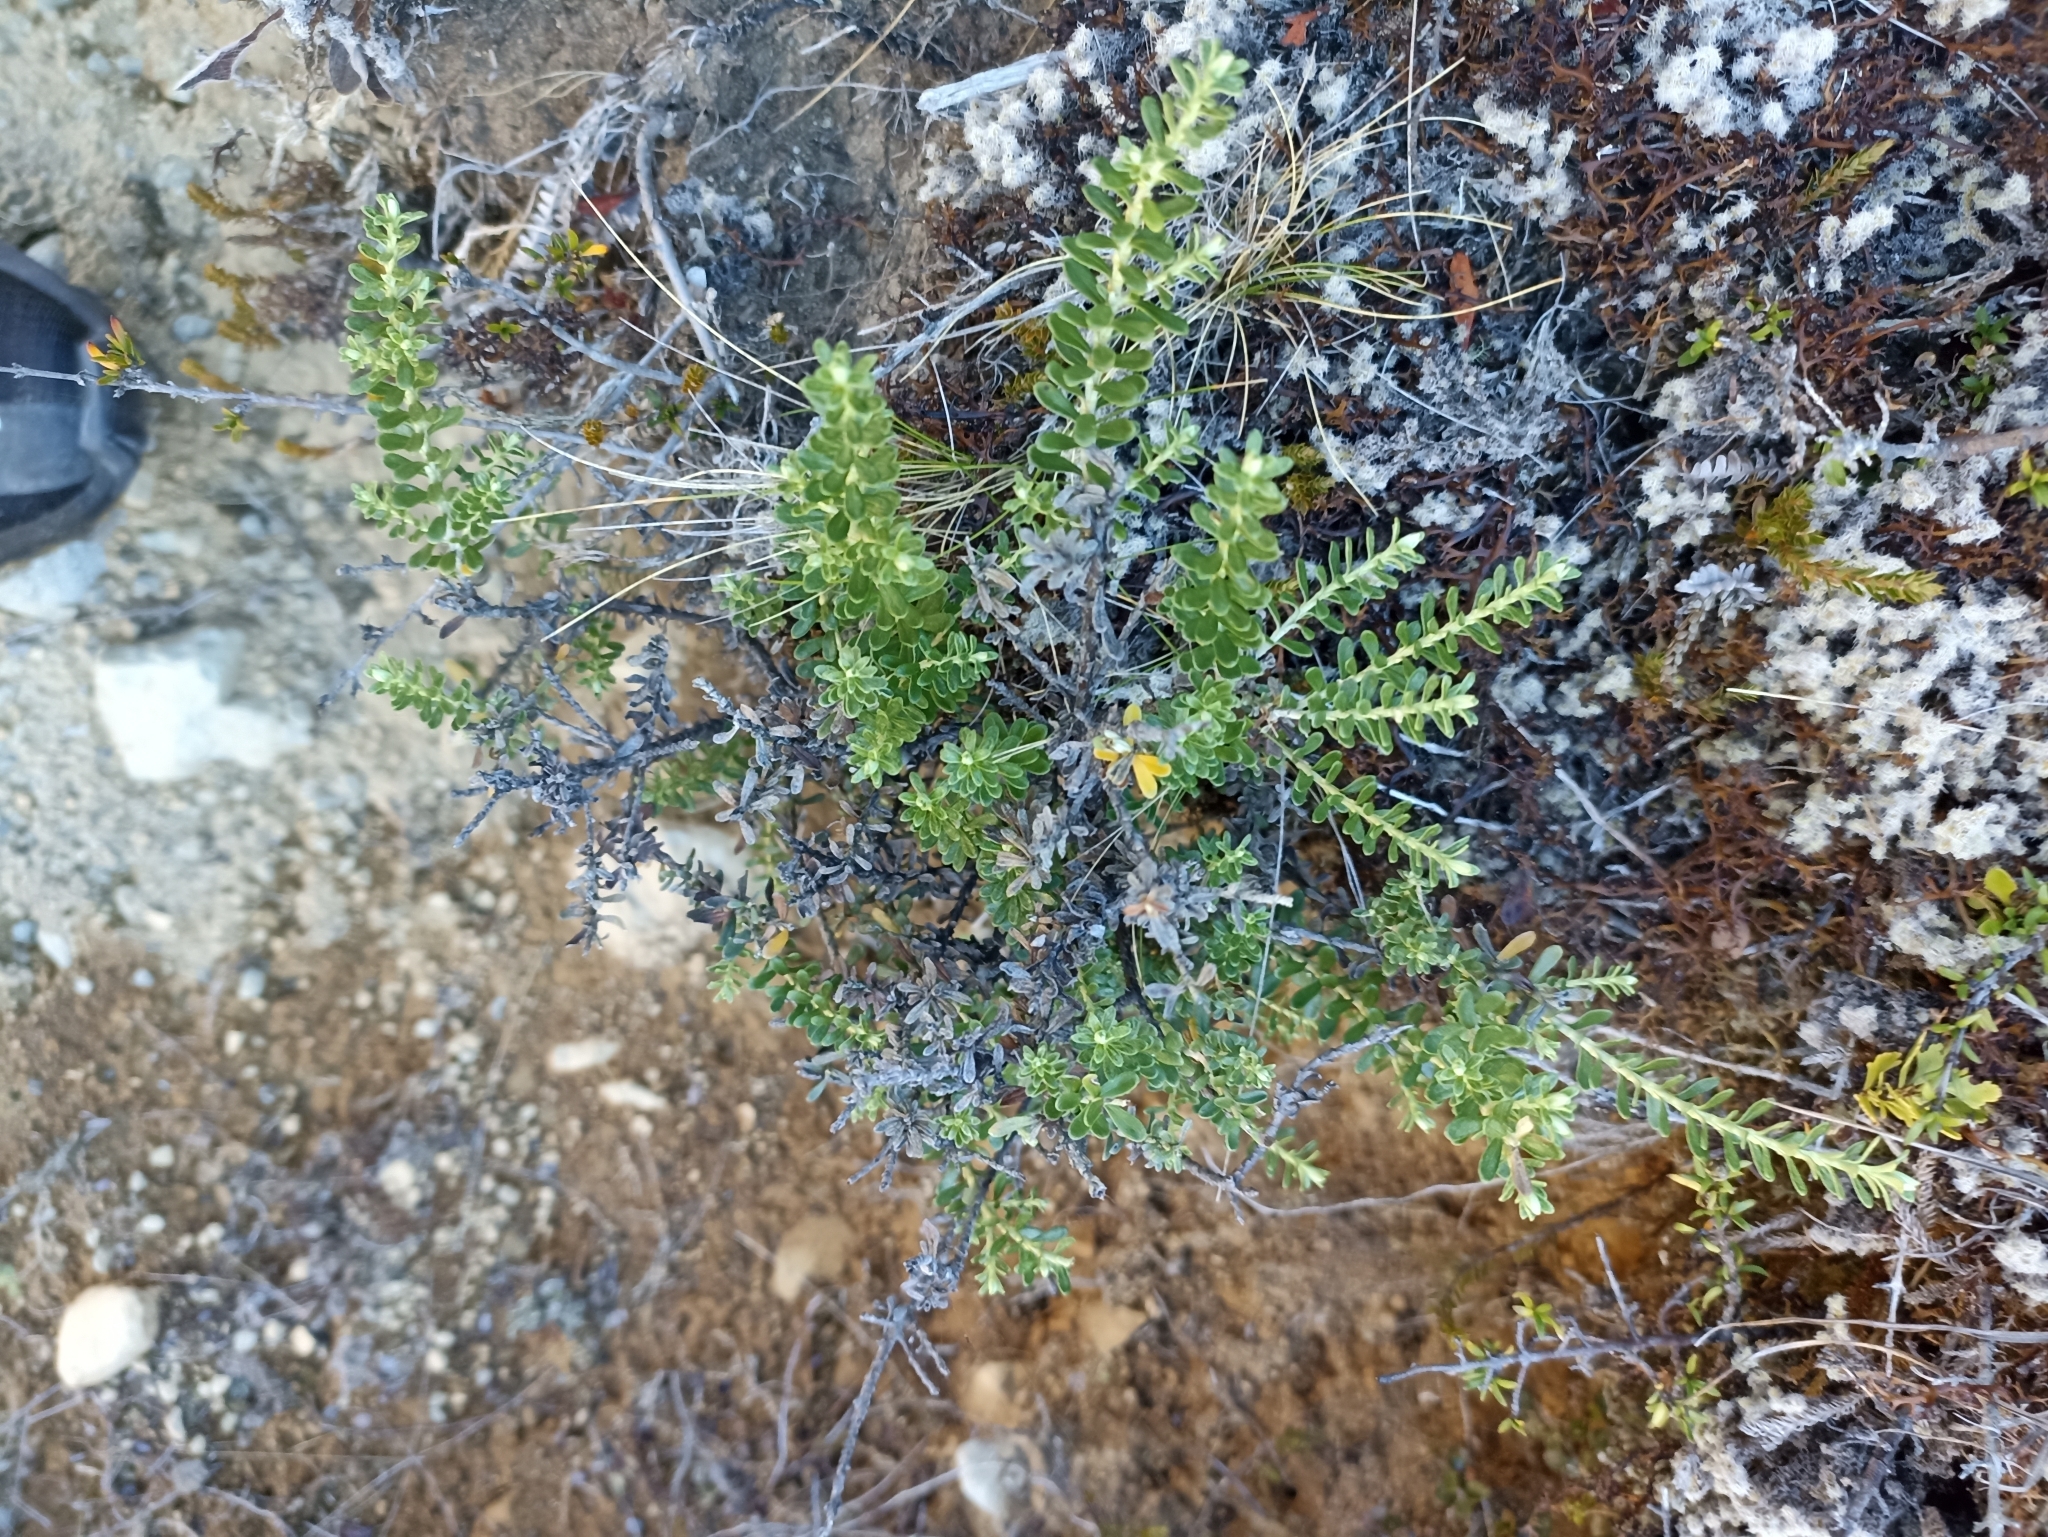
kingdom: Plantae
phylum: Tracheophyta
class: Magnoliopsida
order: Asterales
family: Asteraceae
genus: Ozothamnus
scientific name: Ozothamnus leptophyllus
